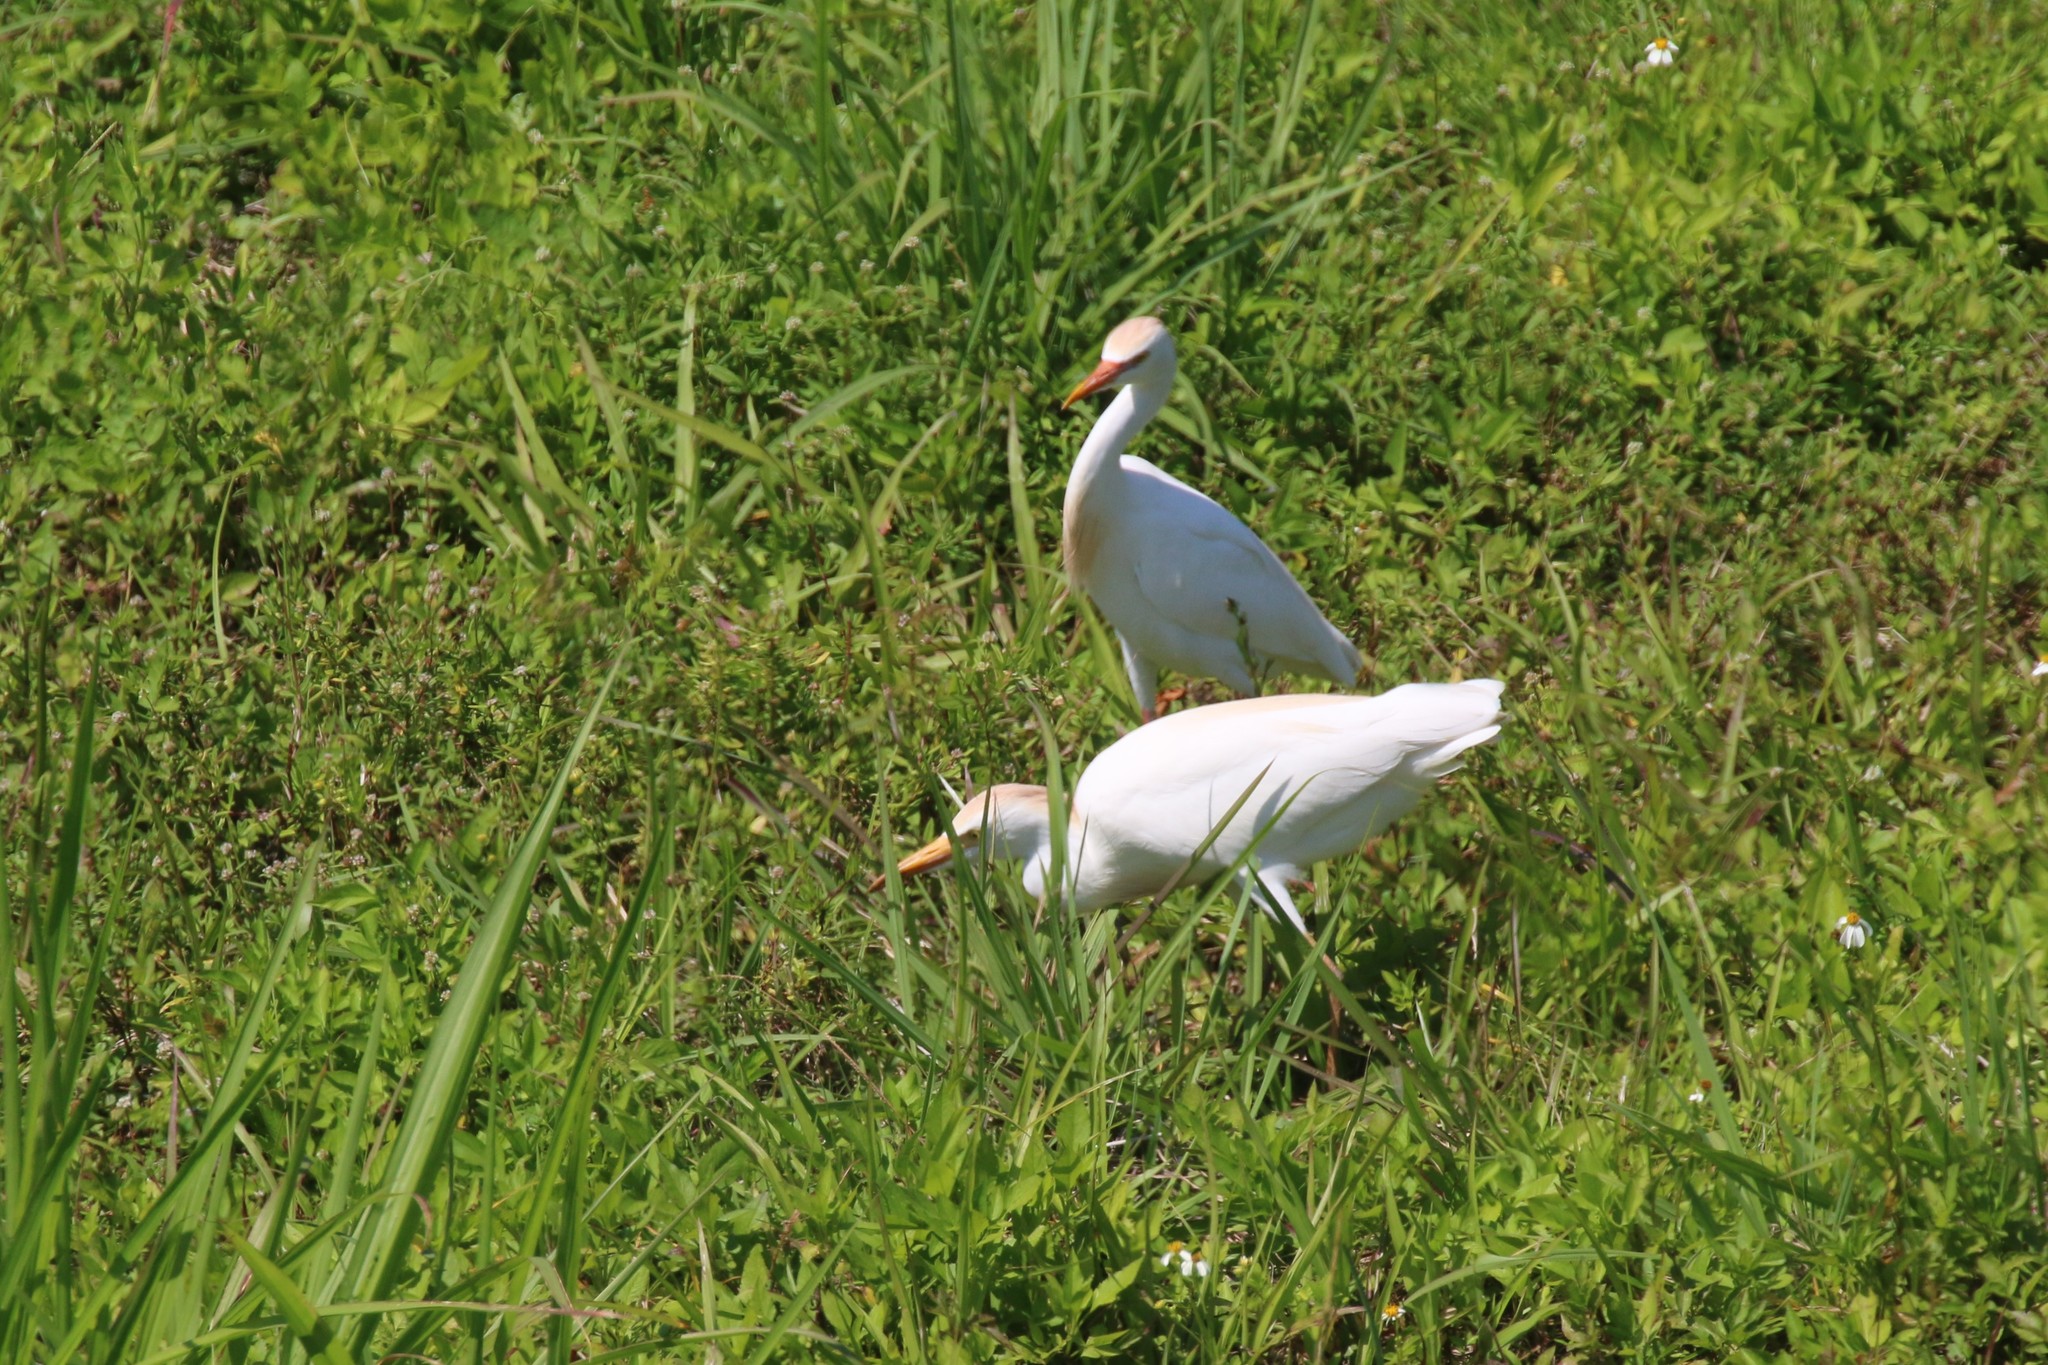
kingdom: Animalia
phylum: Chordata
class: Aves
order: Pelecaniformes
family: Ardeidae
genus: Bubulcus
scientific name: Bubulcus ibis
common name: Cattle egret
